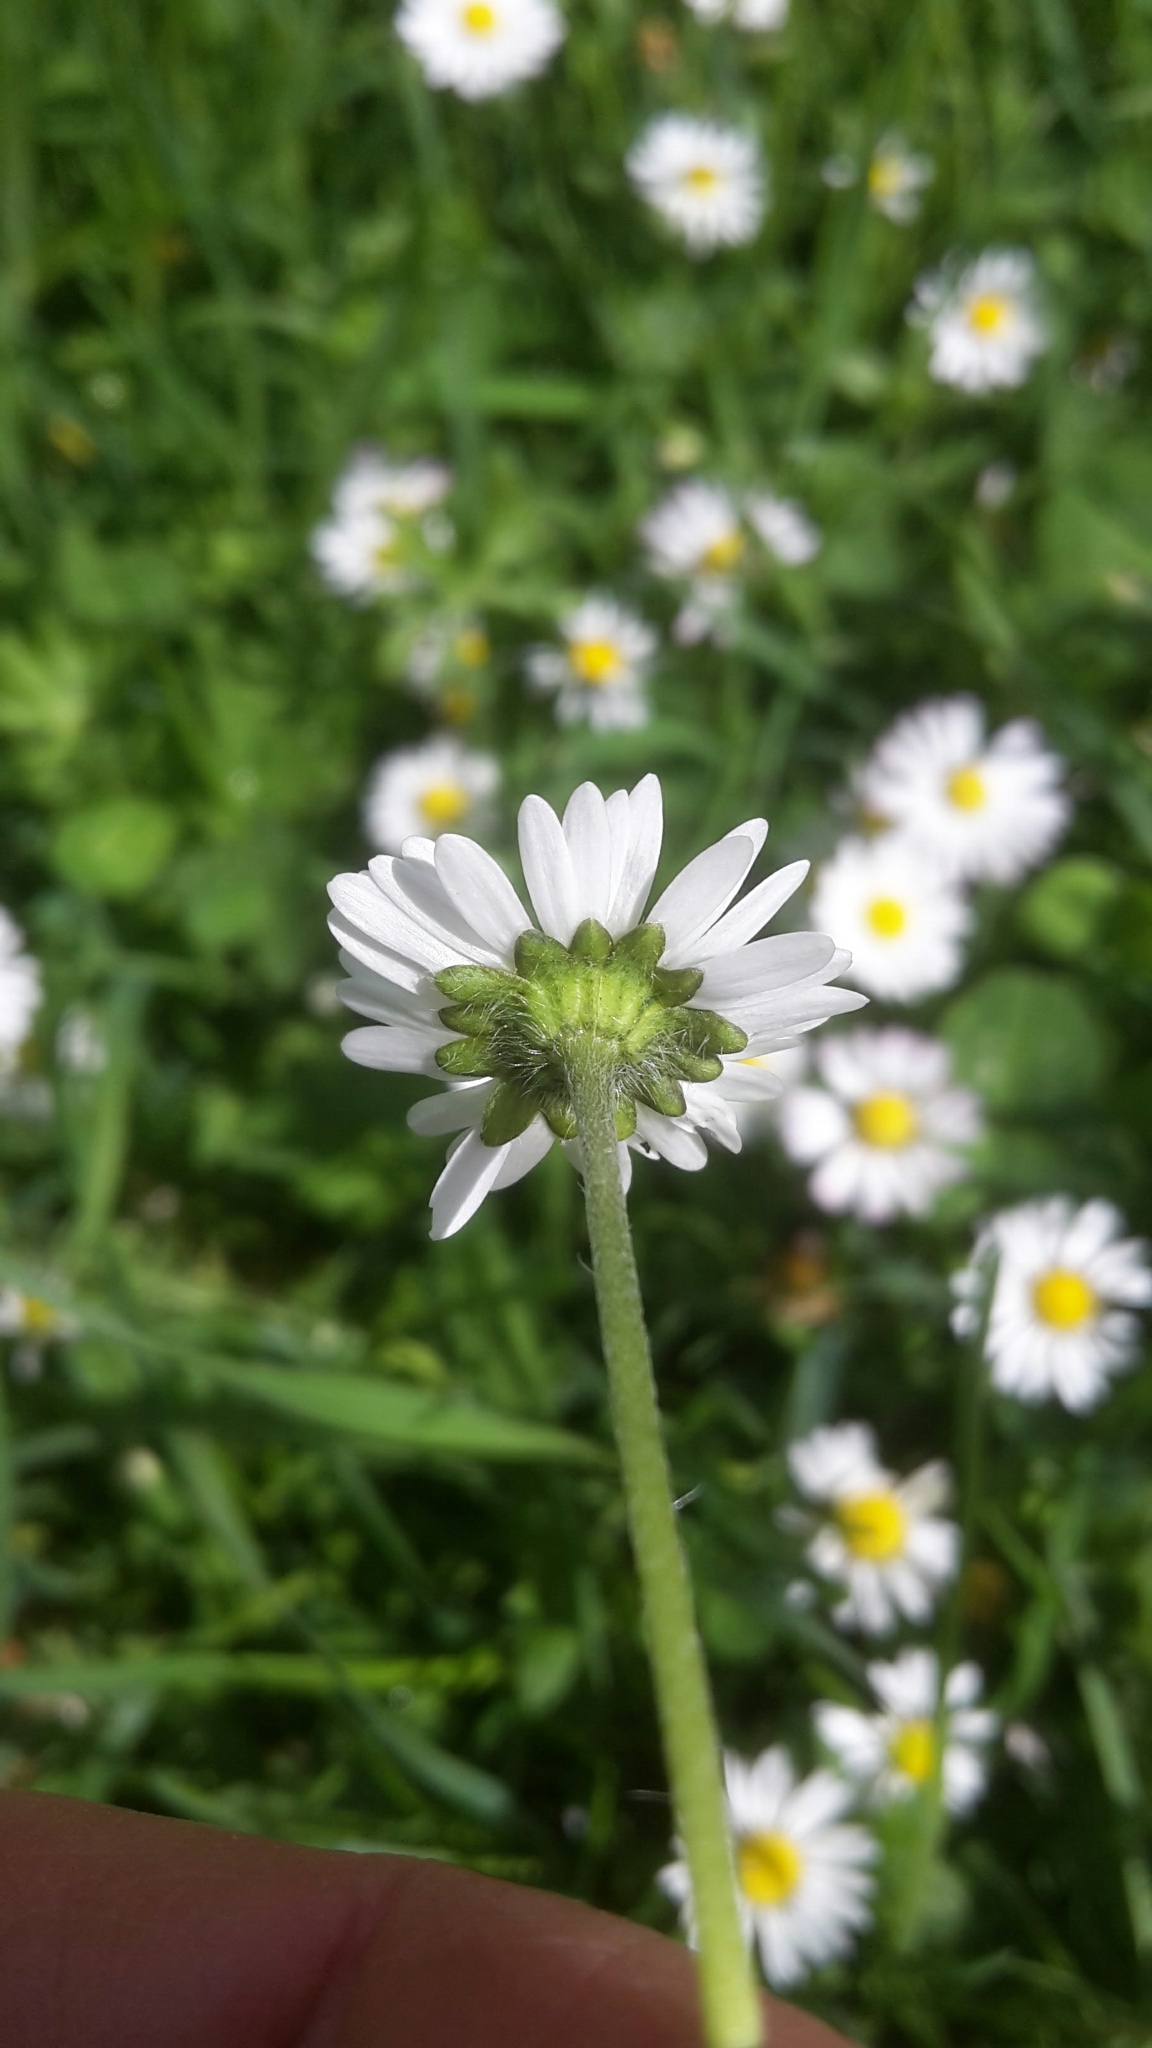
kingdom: Plantae
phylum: Tracheophyta
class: Magnoliopsida
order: Asterales
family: Asteraceae
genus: Bellis
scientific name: Bellis perennis
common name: Lawndaisy
